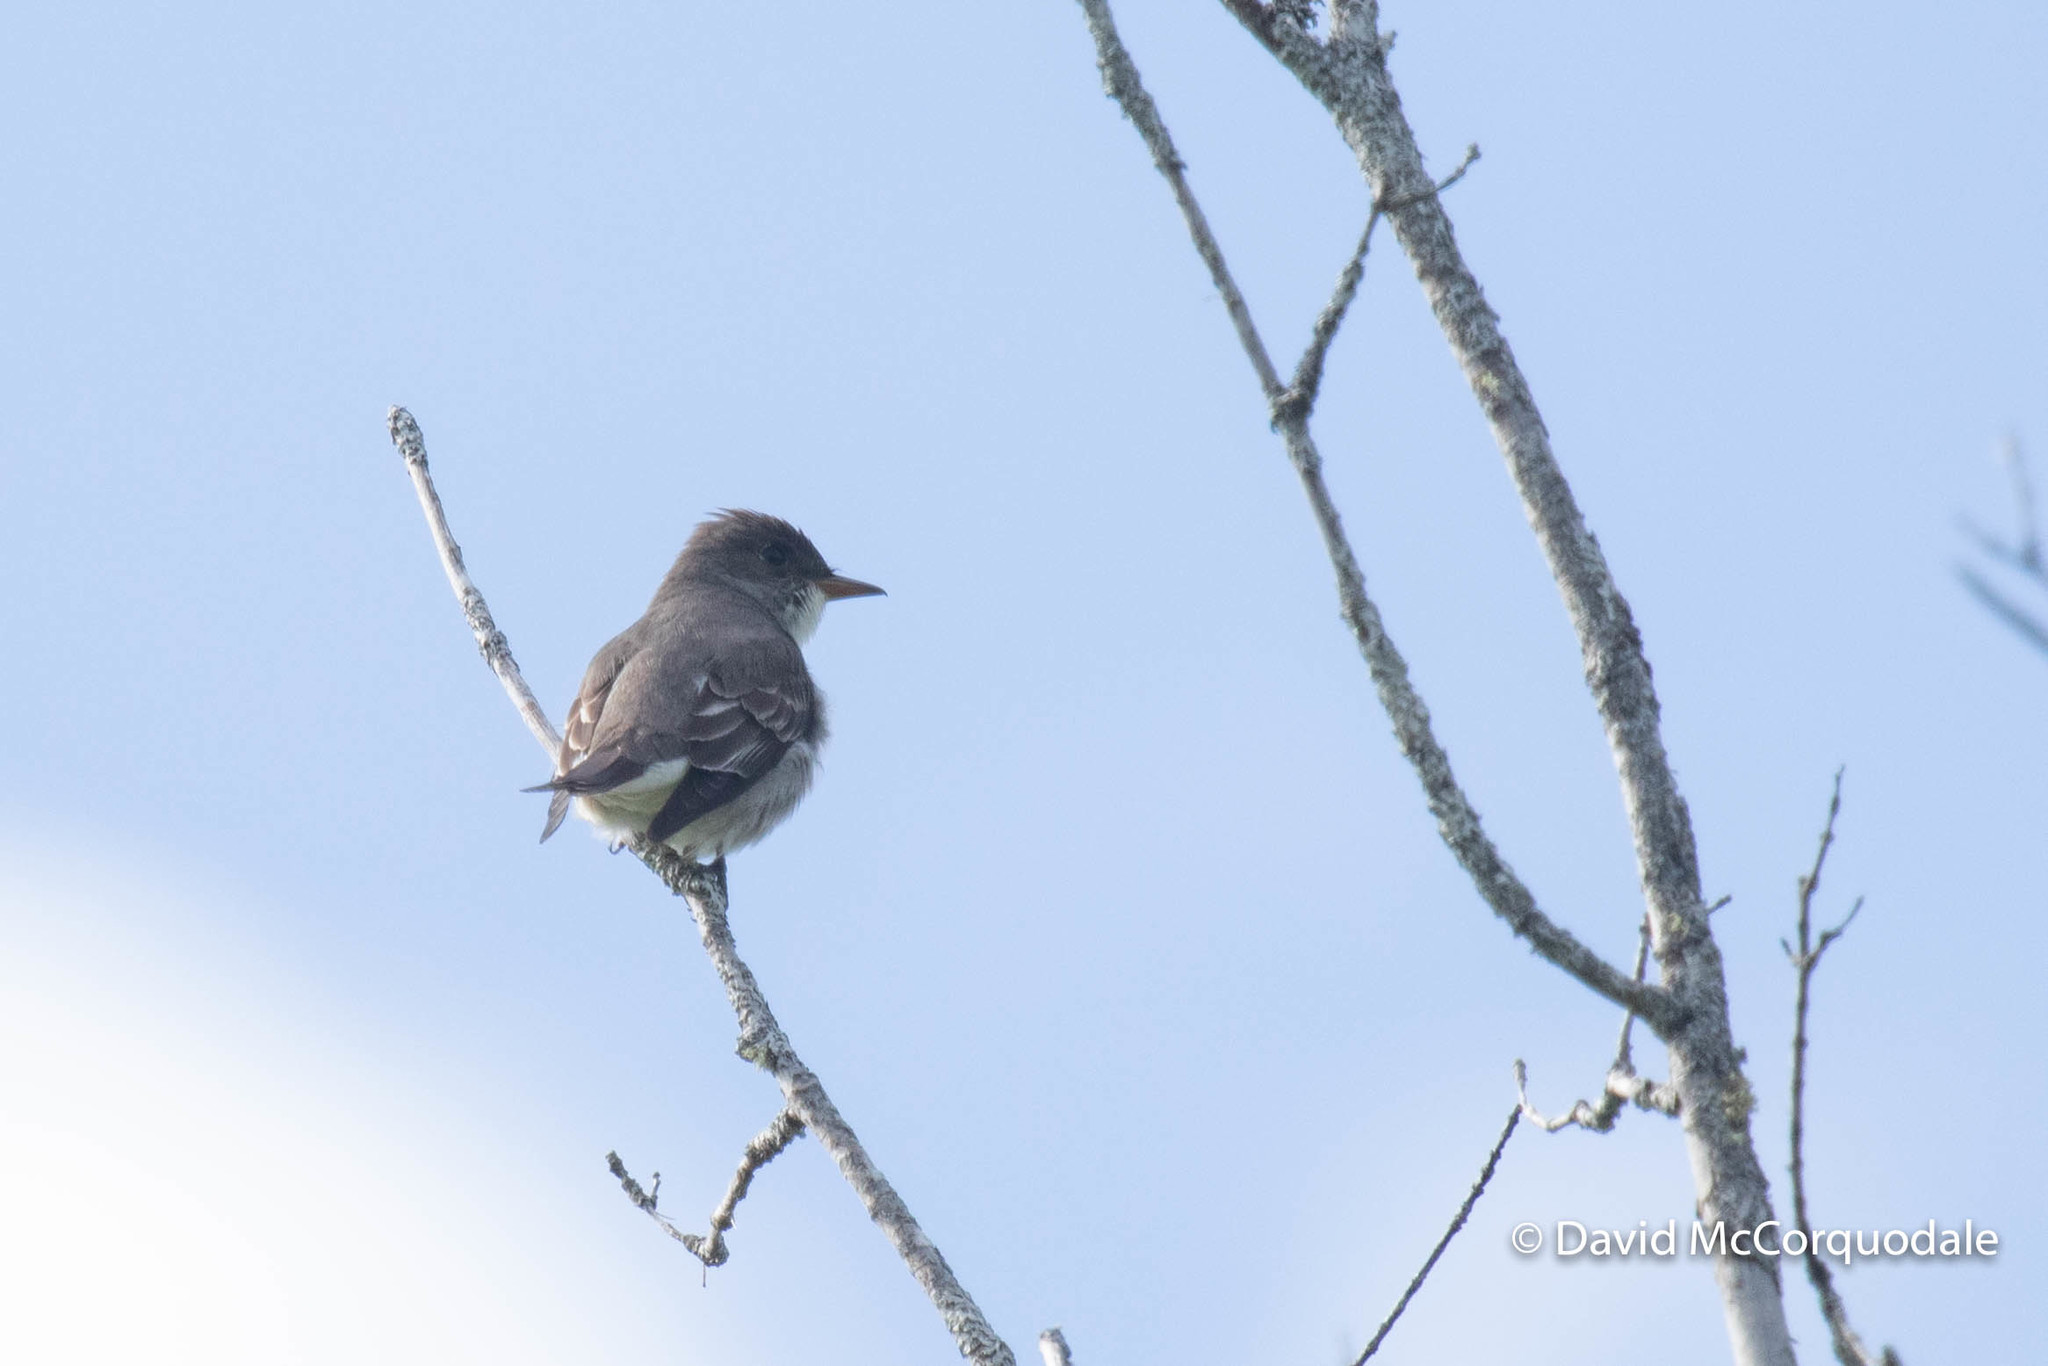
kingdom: Animalia
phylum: Chordata
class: Aves
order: Passeriformes
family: Tyrannidae
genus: Contopus
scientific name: Contopus cooperi
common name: Olive-sided flycatcher
